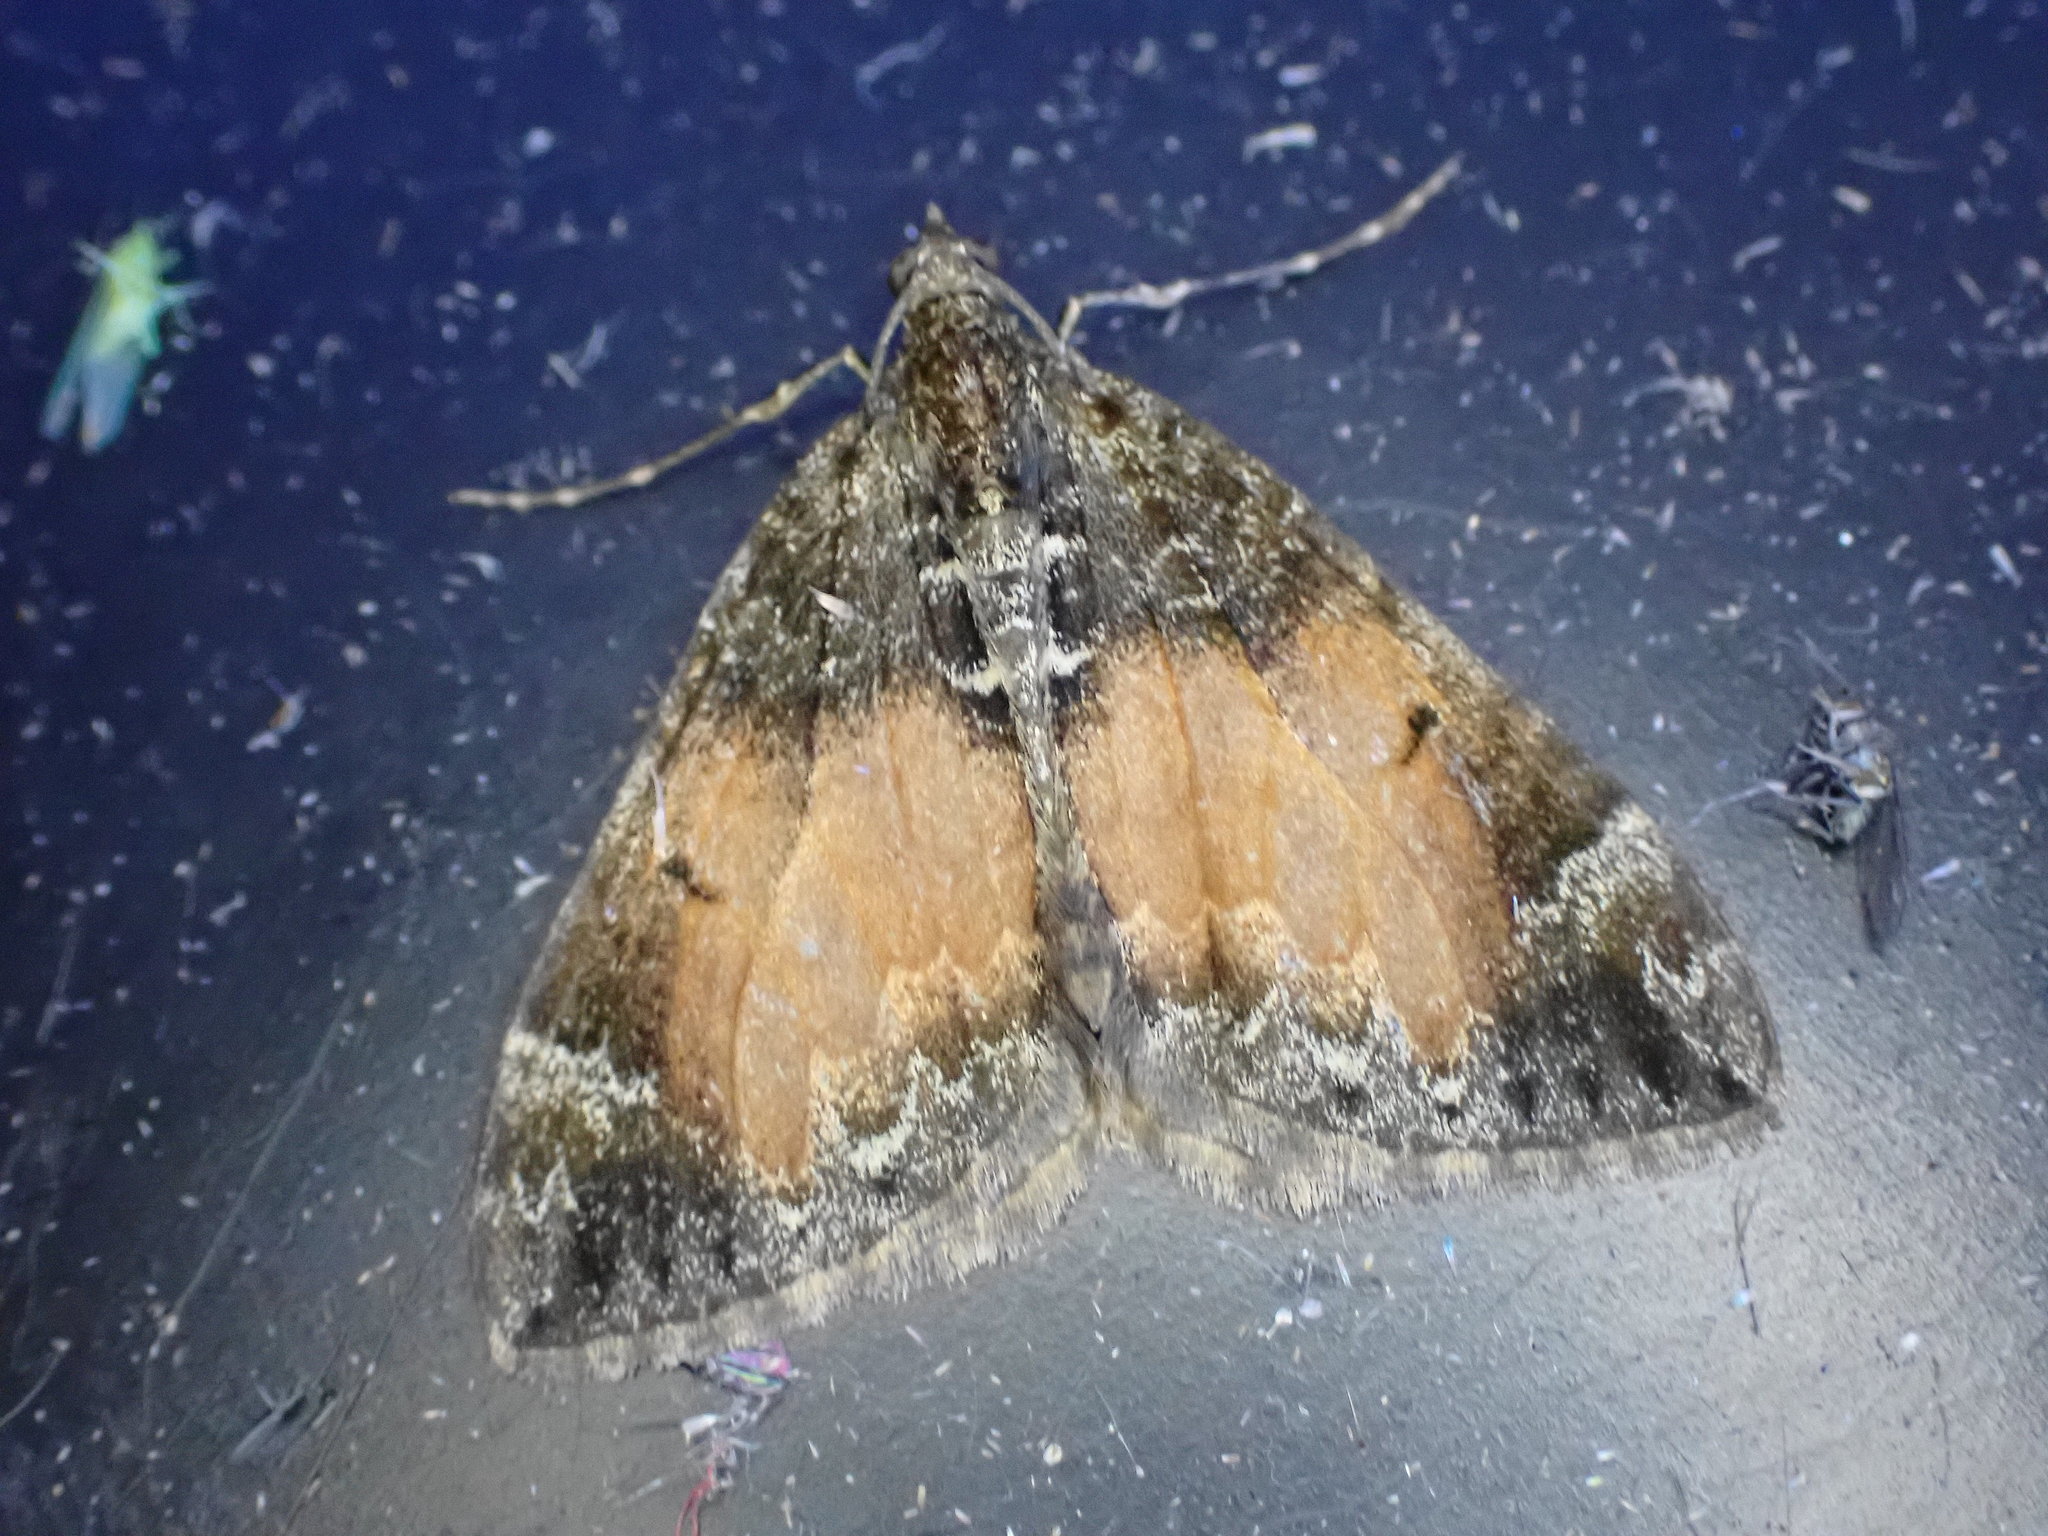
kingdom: Animalia
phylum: Arthropoda
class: Insecta
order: Lepidoptera
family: Geometridae
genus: Dysstroma
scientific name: Dysstroma truncata
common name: Common marbled carpet
